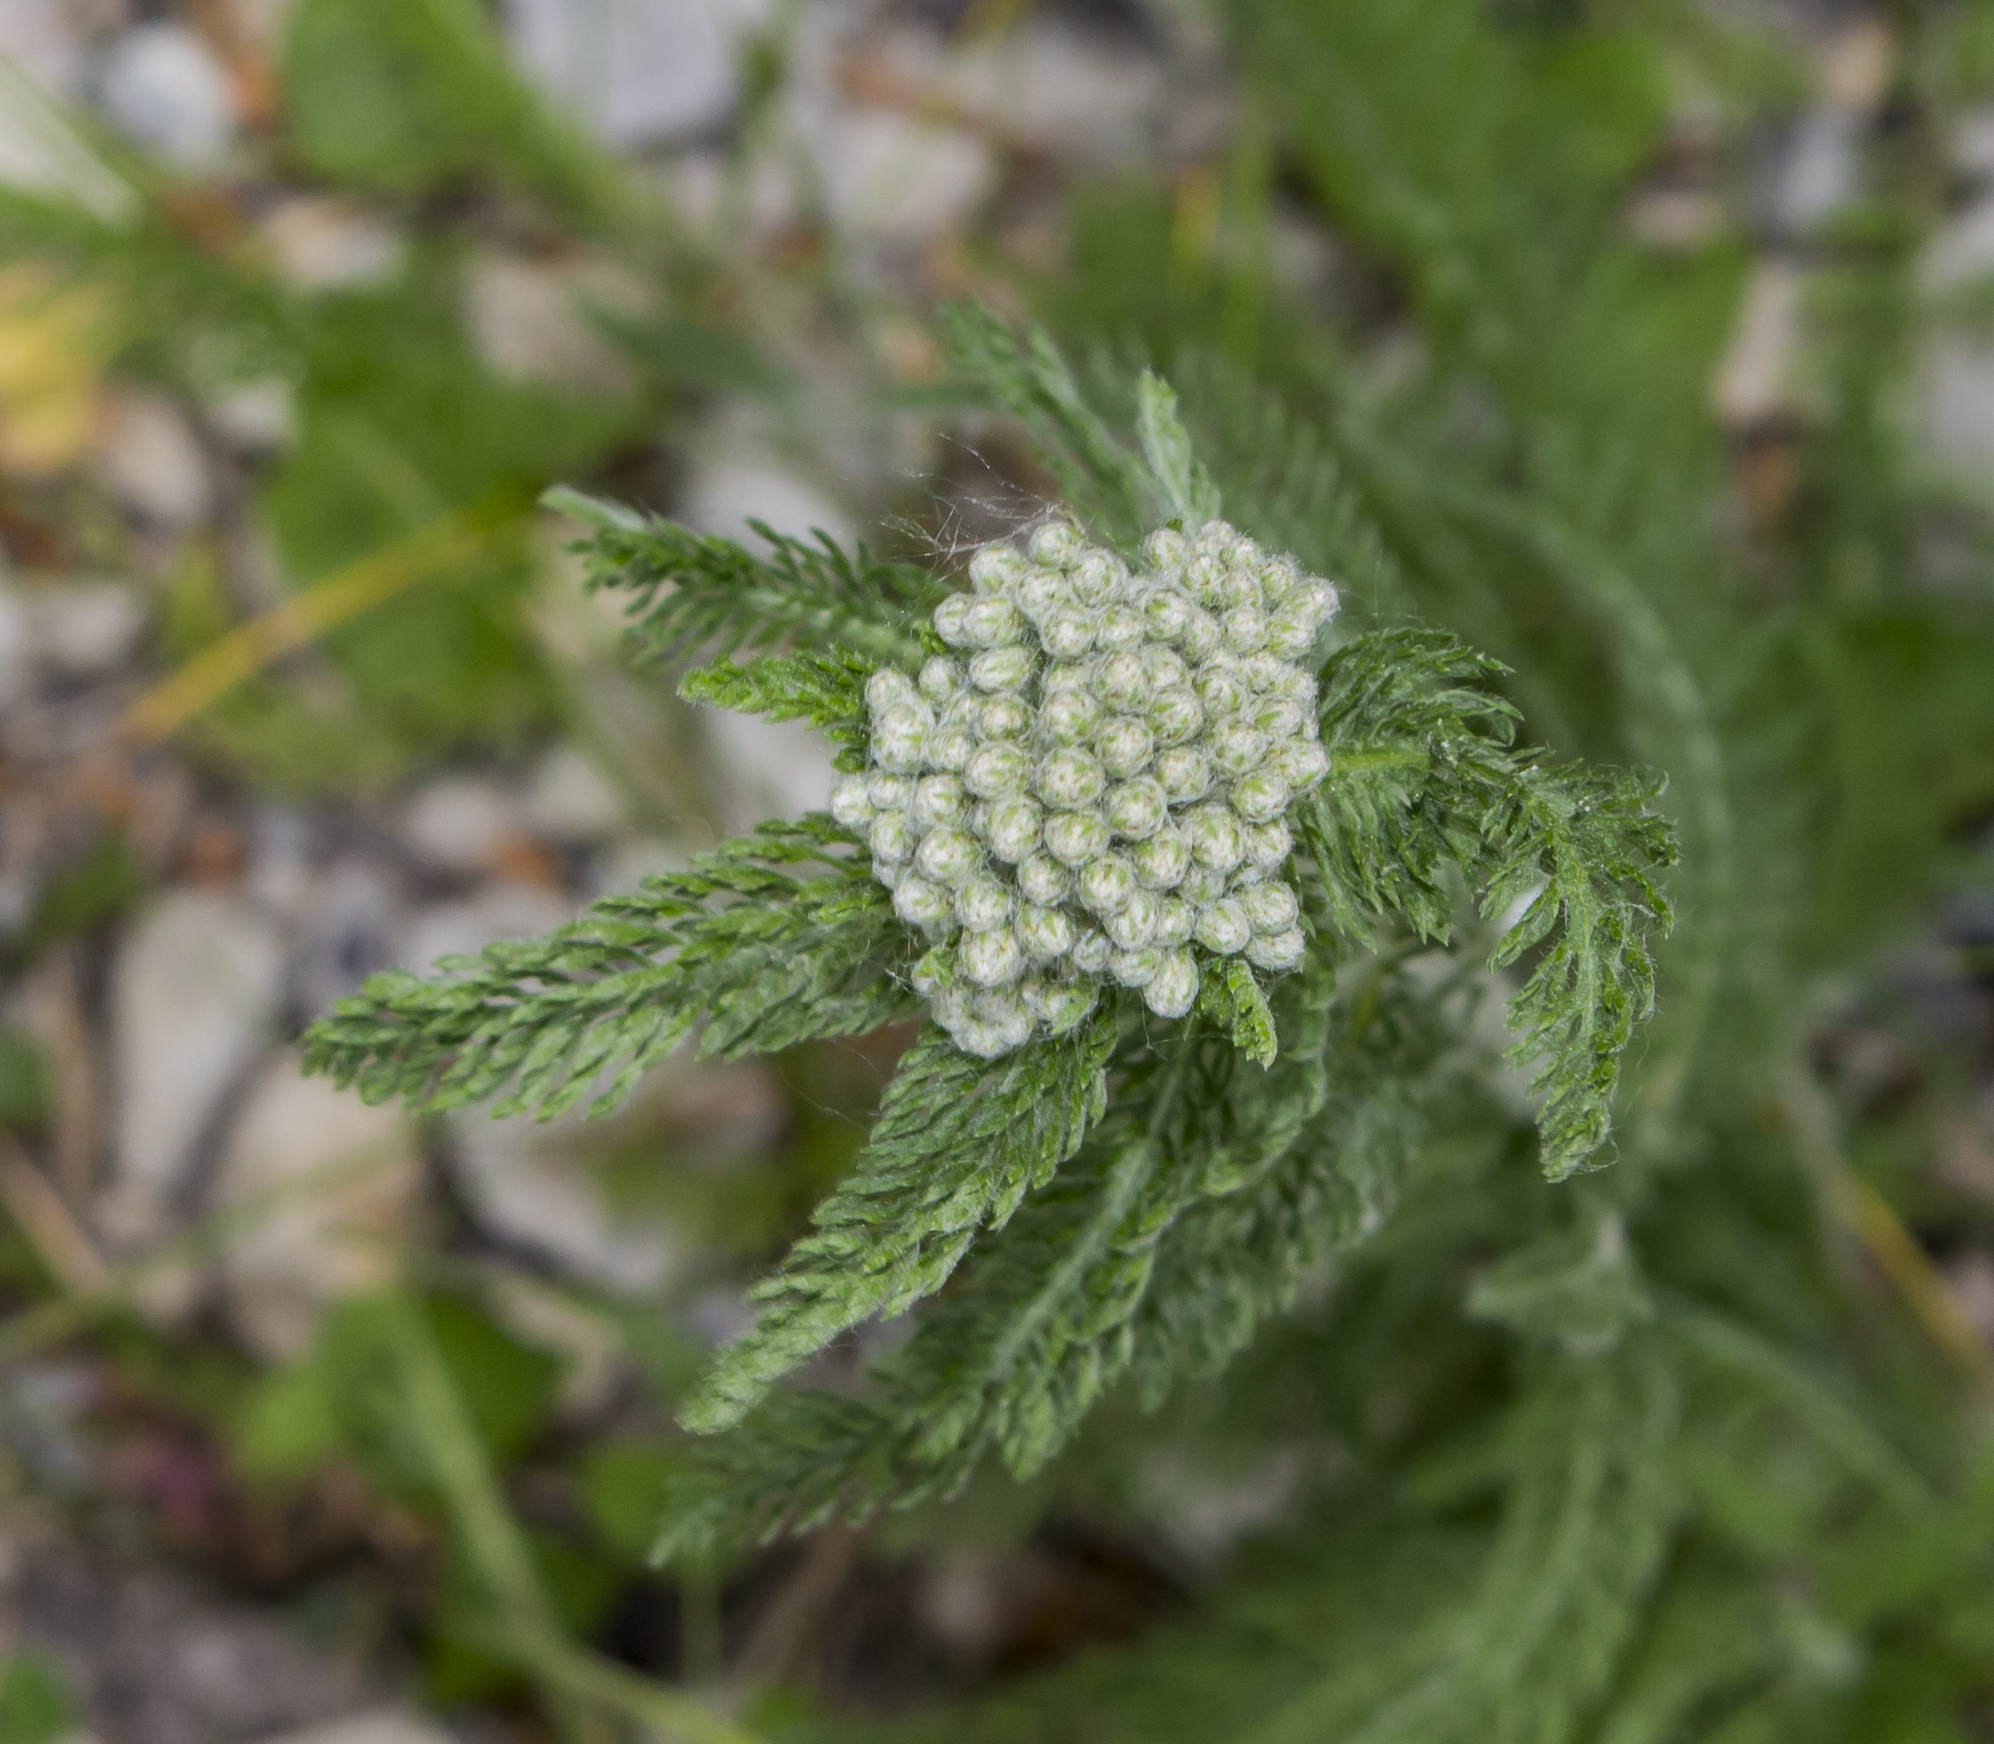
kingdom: Plantae
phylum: Tracheophyta
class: Magnoliopsida
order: Asterales
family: Asteraceae
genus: Achillea
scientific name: Achillea millefolium
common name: Yarrow
